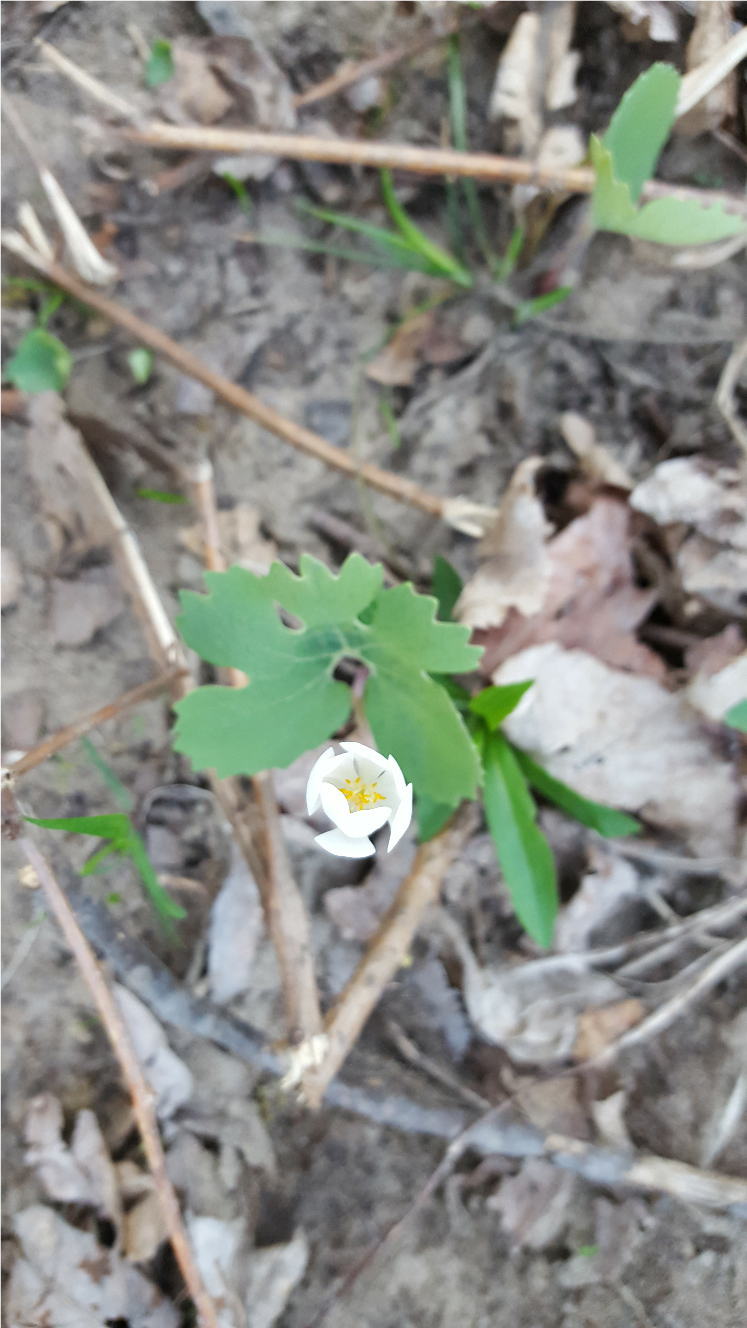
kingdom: Plantae
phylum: Tracheophyta
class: Magnoliopsida
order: Ranunculales
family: Papaveraceae
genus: Sanguinaria
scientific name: Sanguinaria canadensis
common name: Bloodroot
